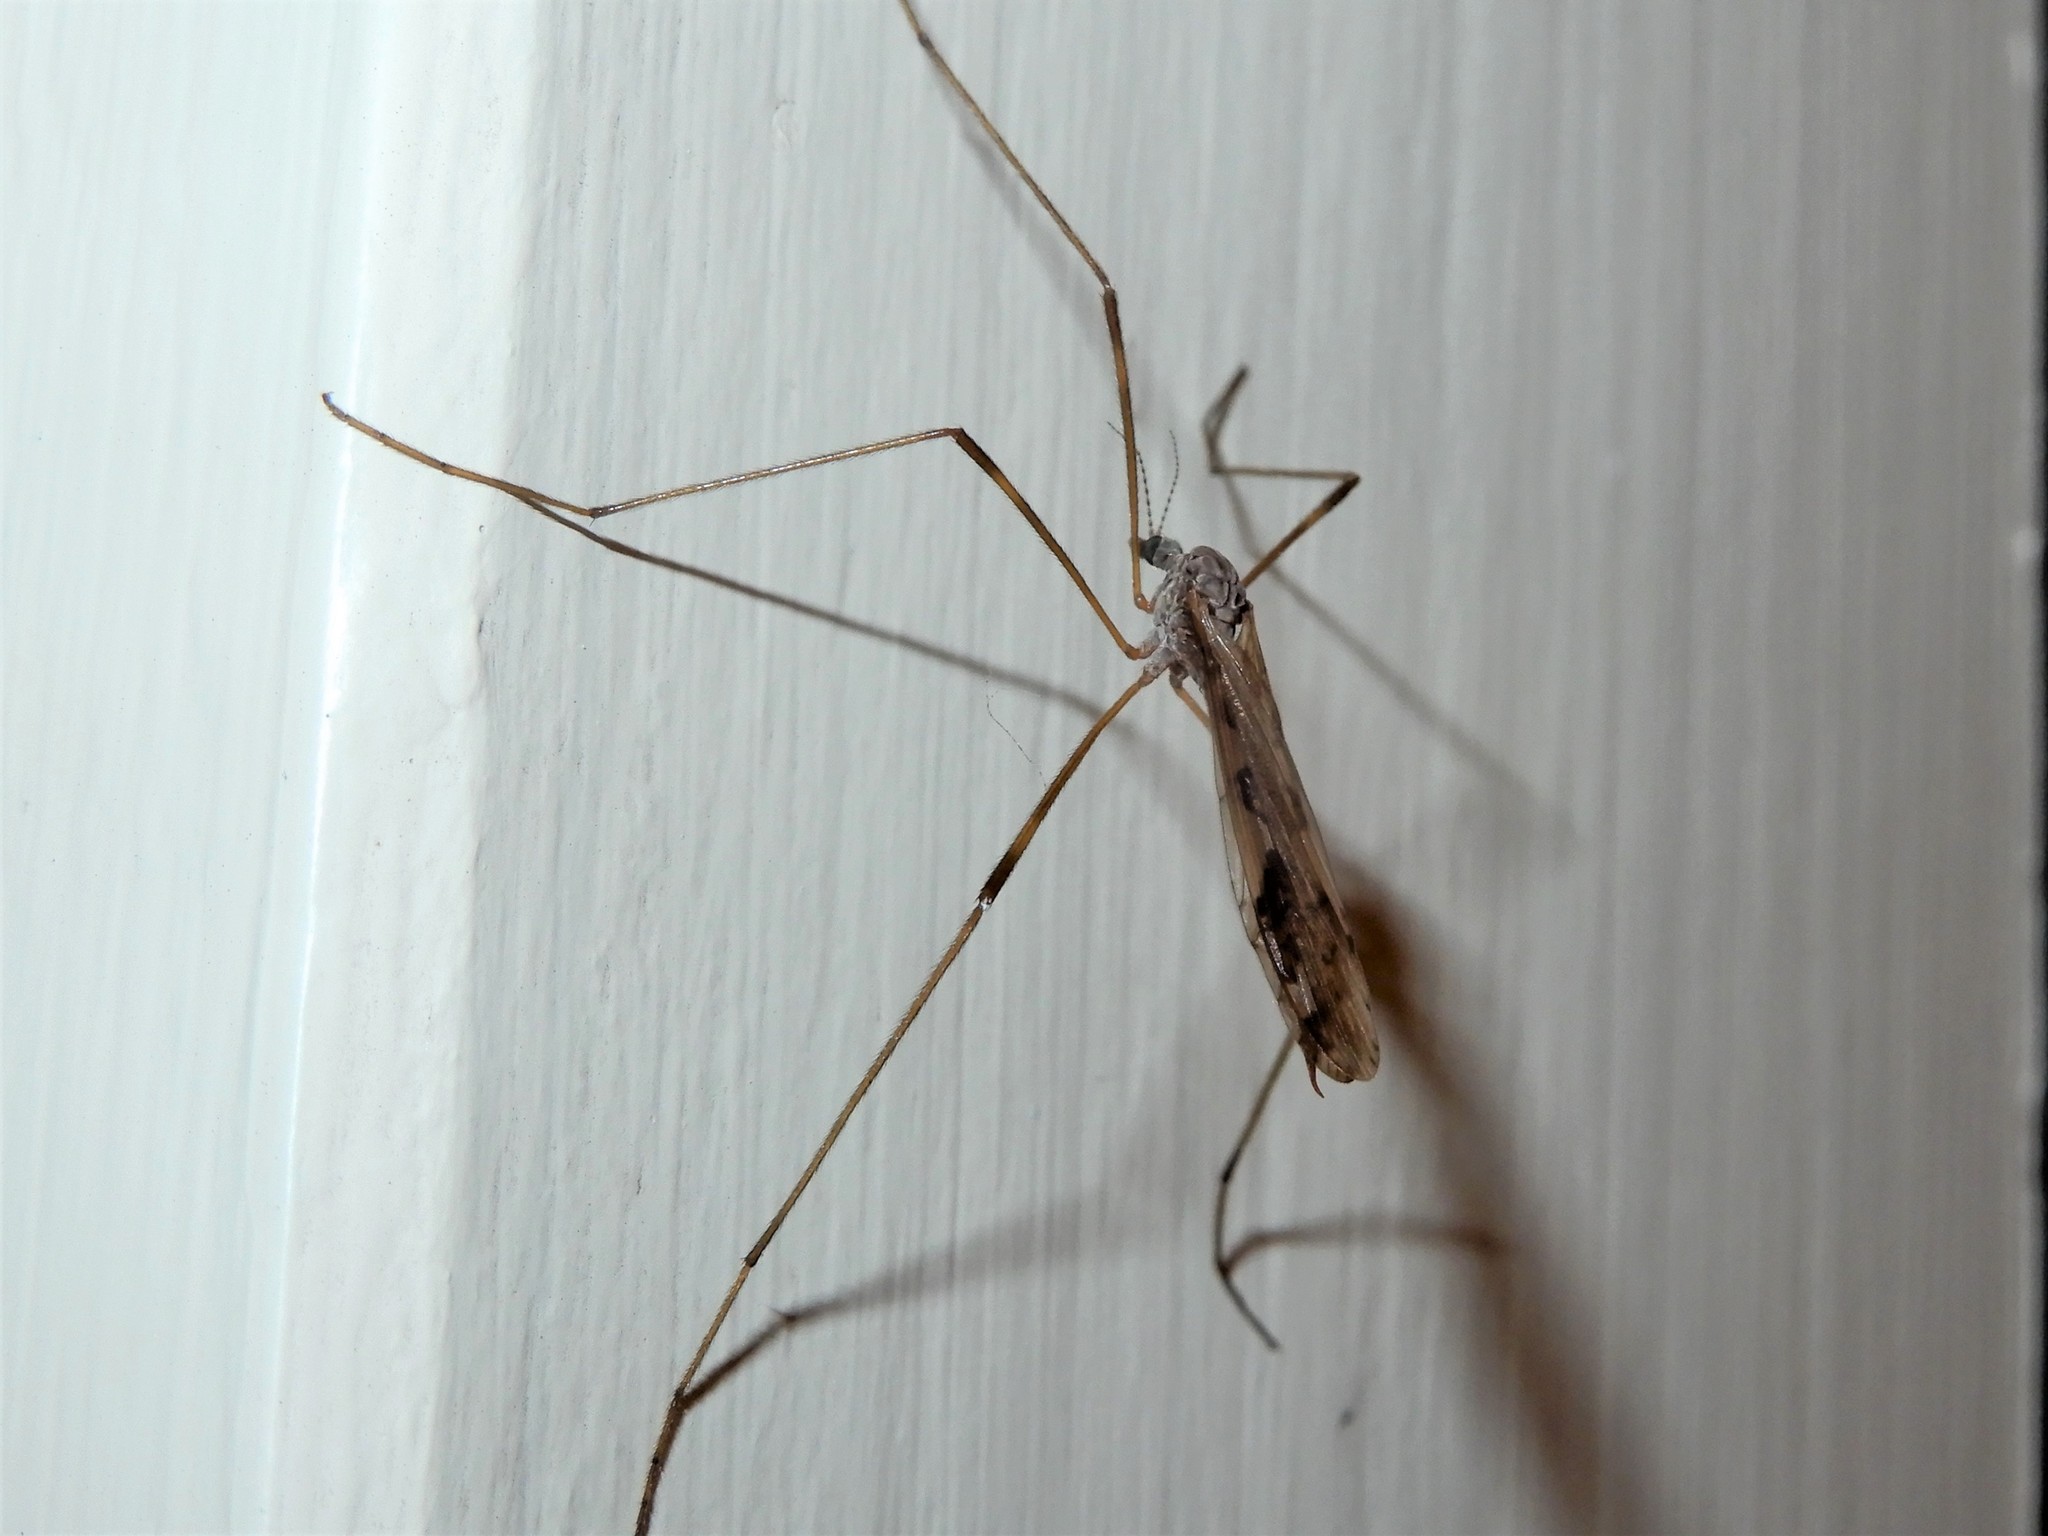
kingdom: Animalia
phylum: Arthropoda
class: Insecta
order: Diptera
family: Limoniidae
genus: Paralimnophila
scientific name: Paralimnophila skusei
